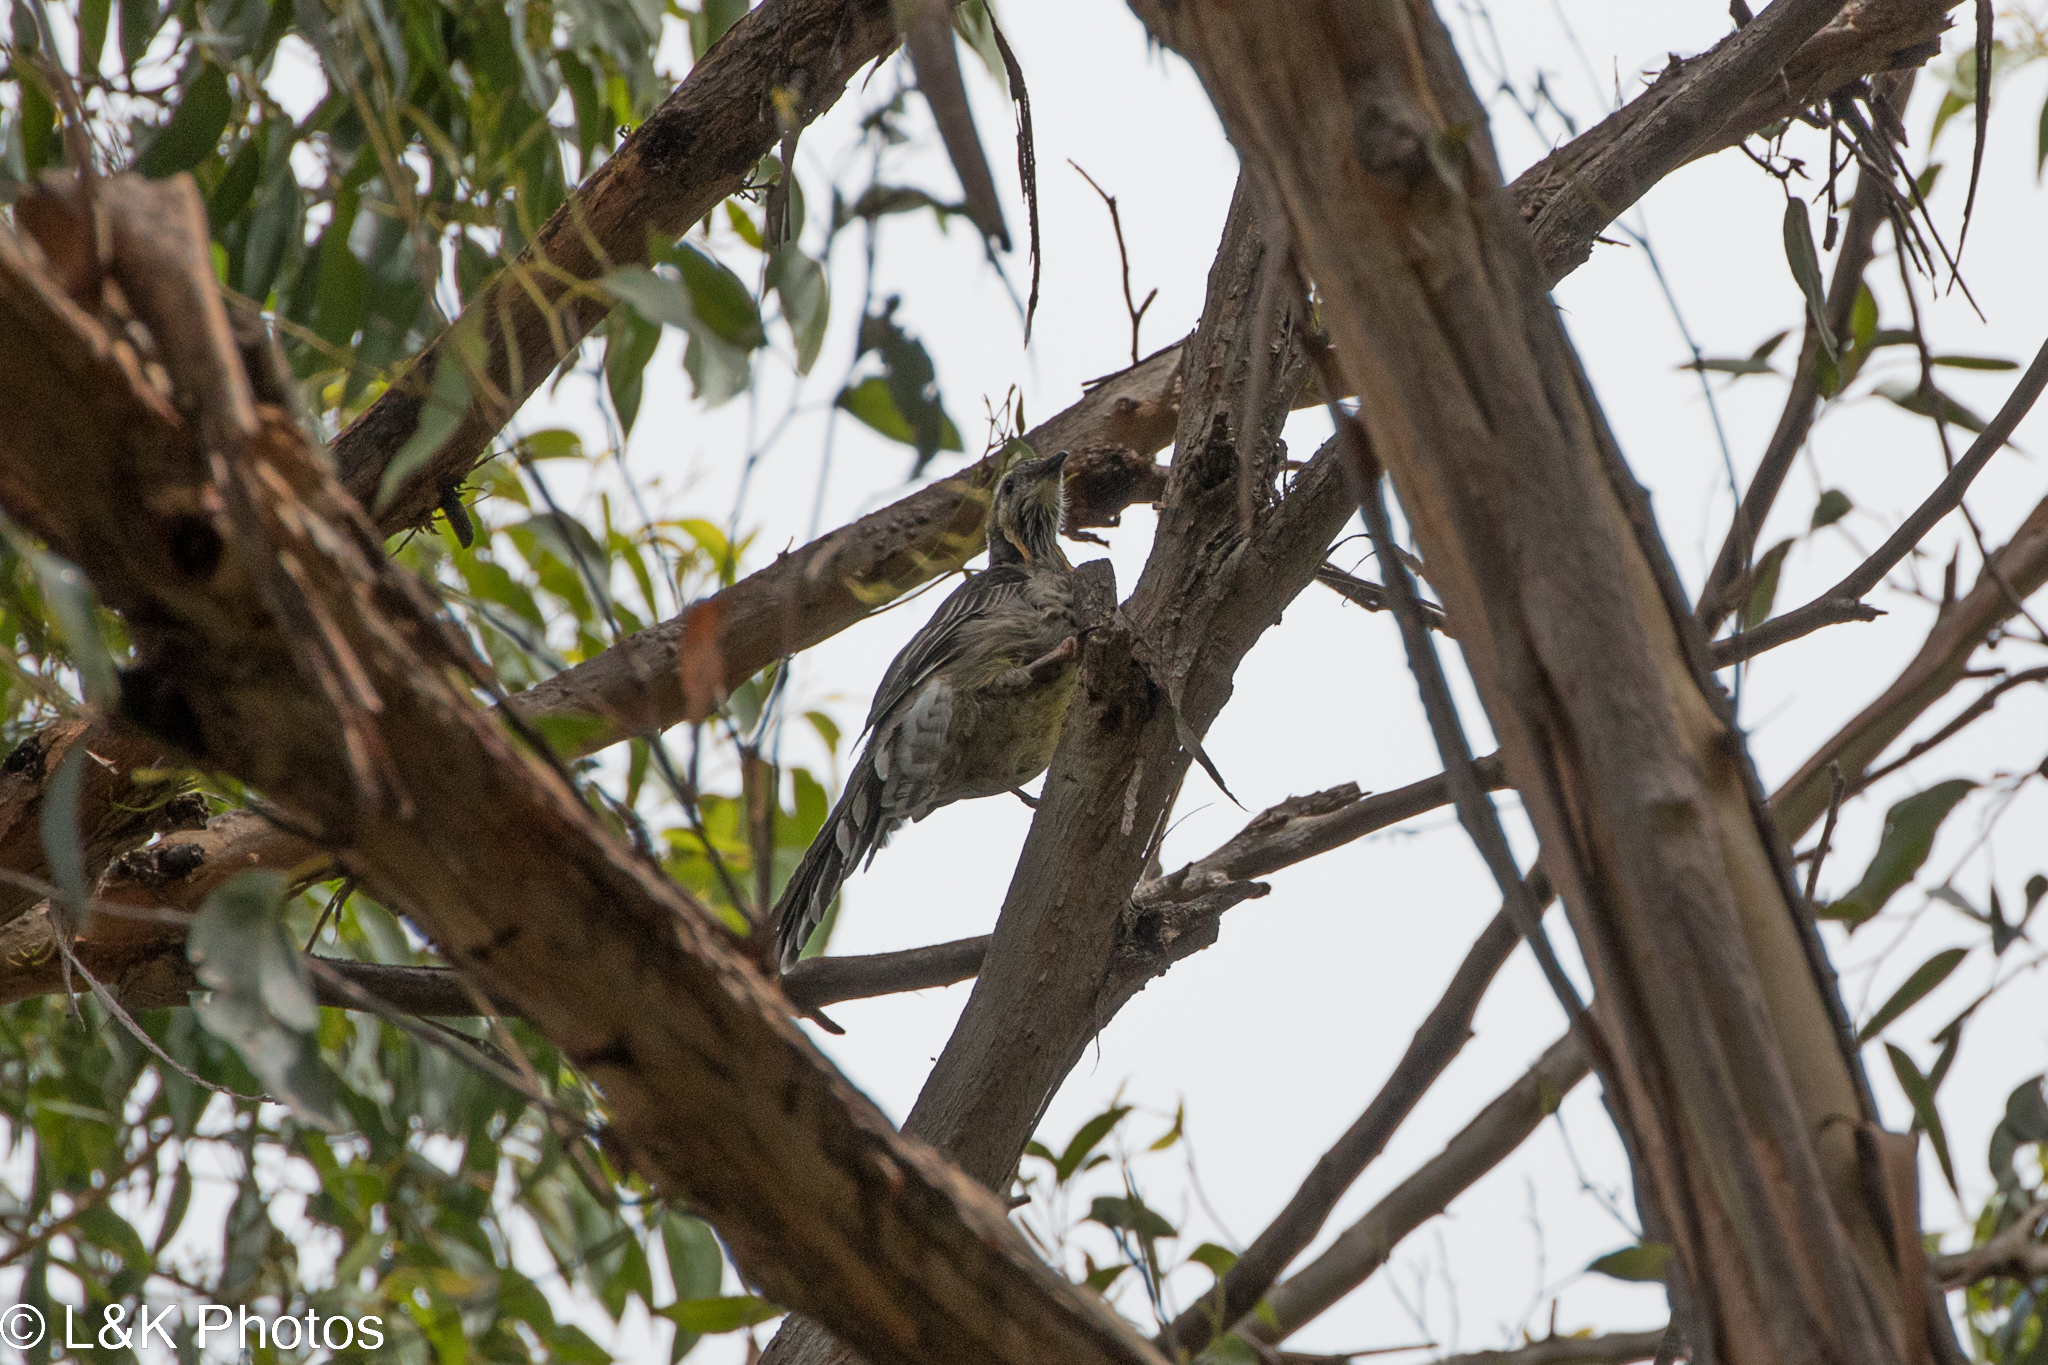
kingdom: Animalia
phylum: Chordata
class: Aves
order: Passeriformes
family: Meliphagidae
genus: Anthochaera
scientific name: Anthochaera paradoxa
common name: Yellow wattlebird
